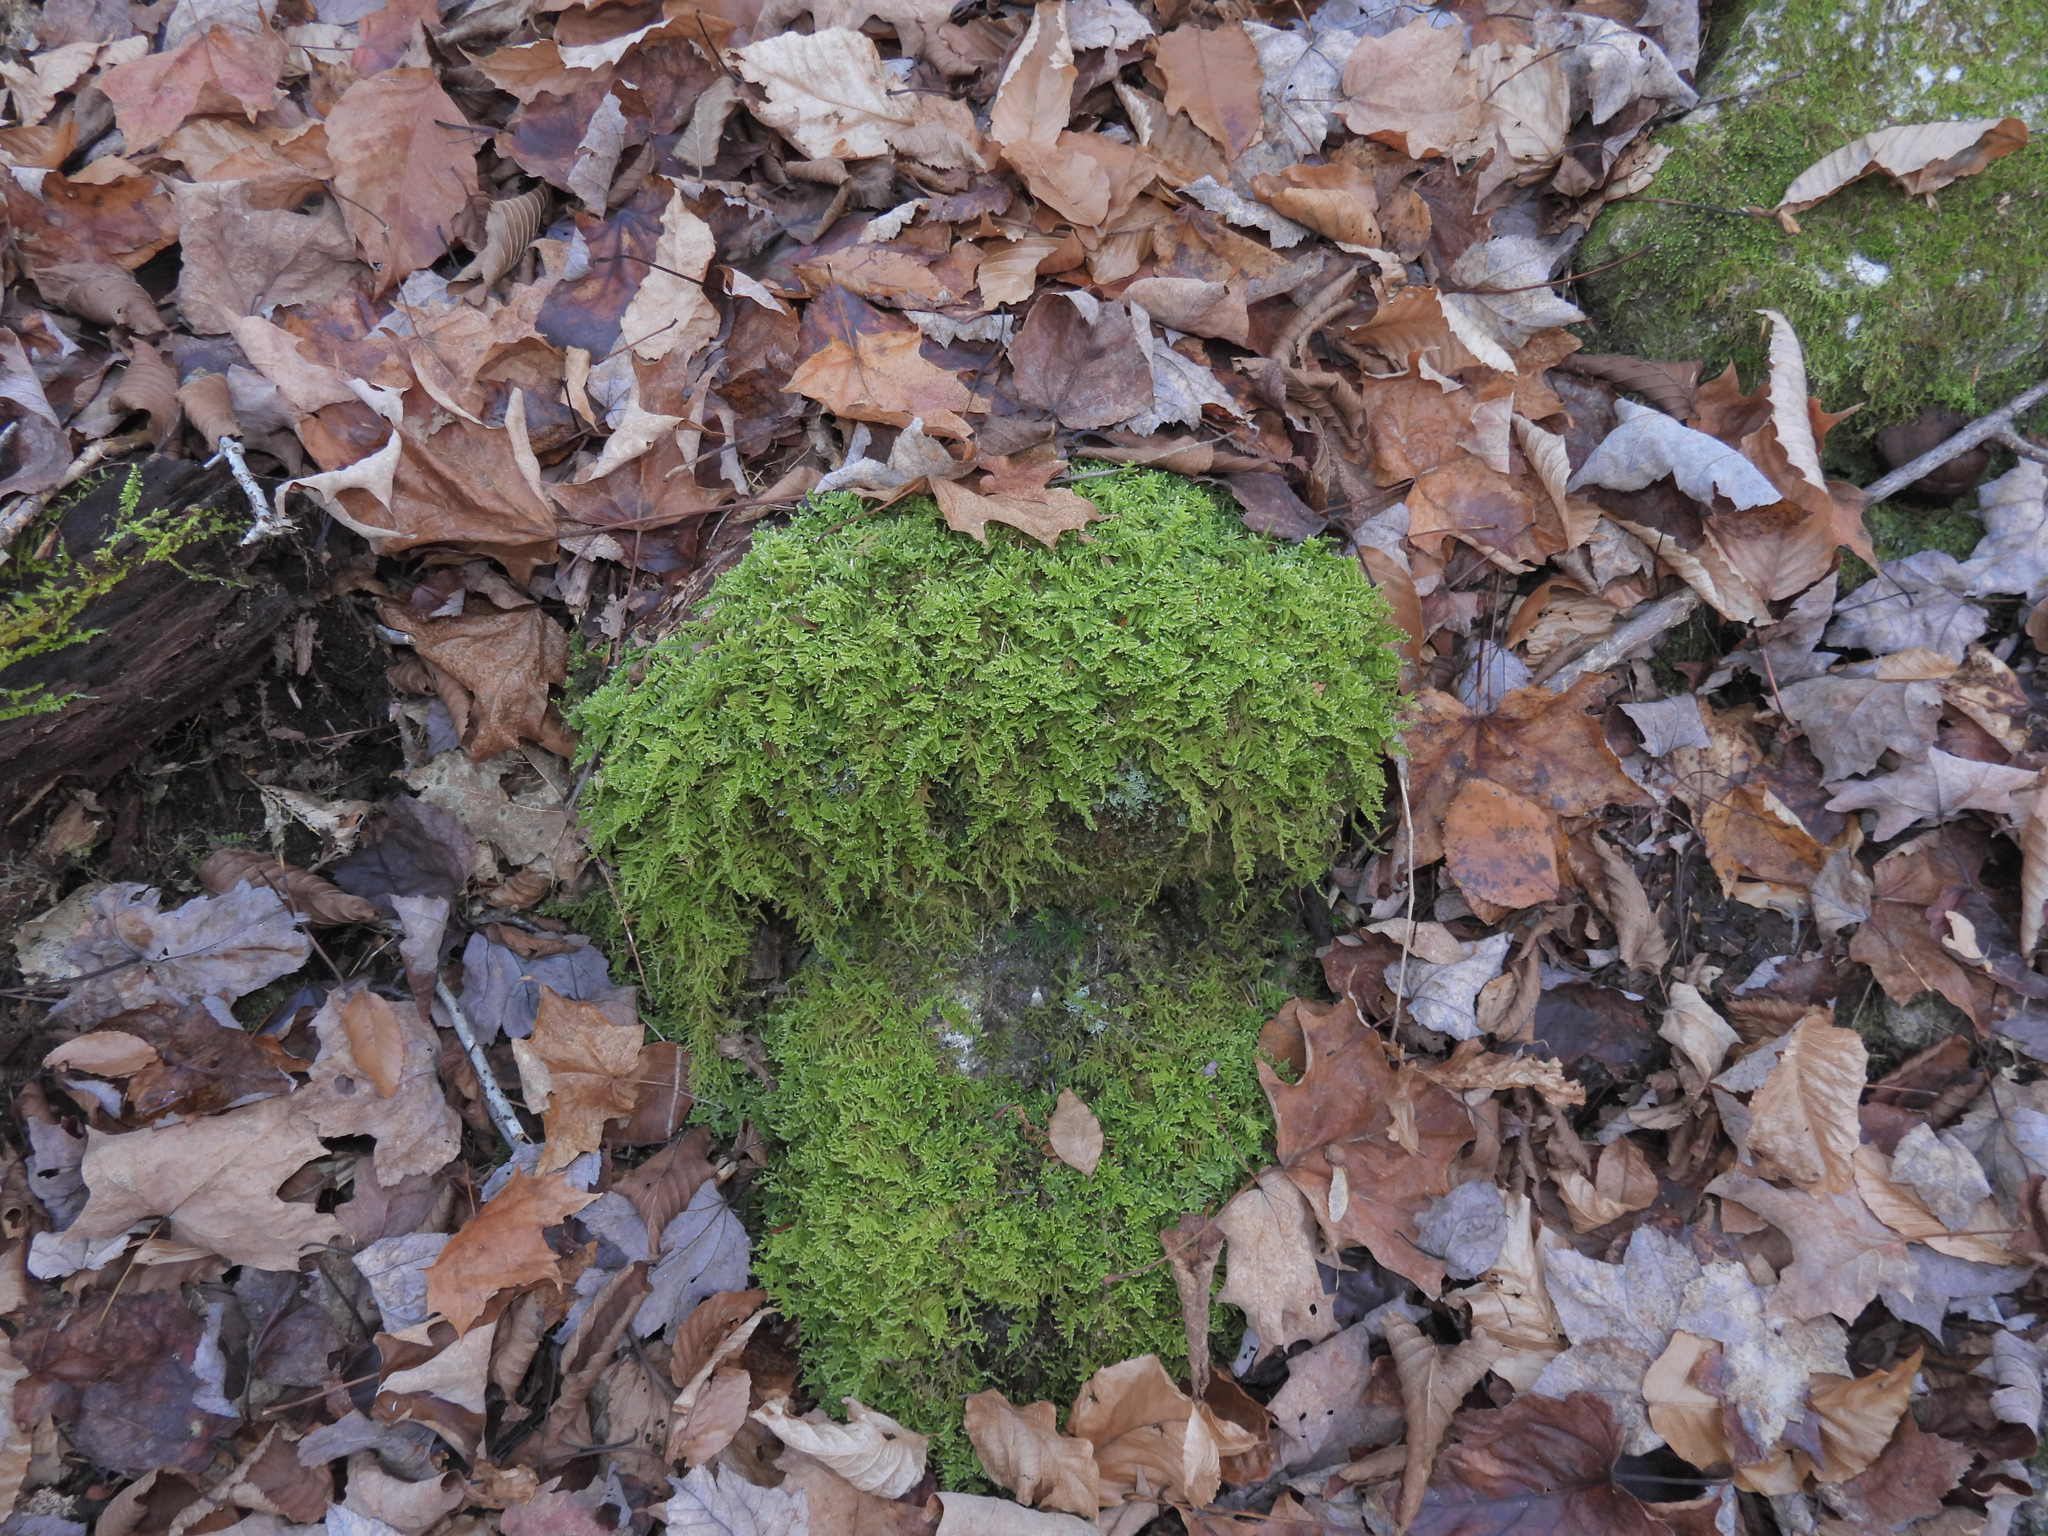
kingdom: Plantae
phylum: Bryophyta
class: Bryopsida
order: Hypnales
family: Callicladiaceae
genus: Callicladium
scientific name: Callicladium imponens
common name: Brocade moss
